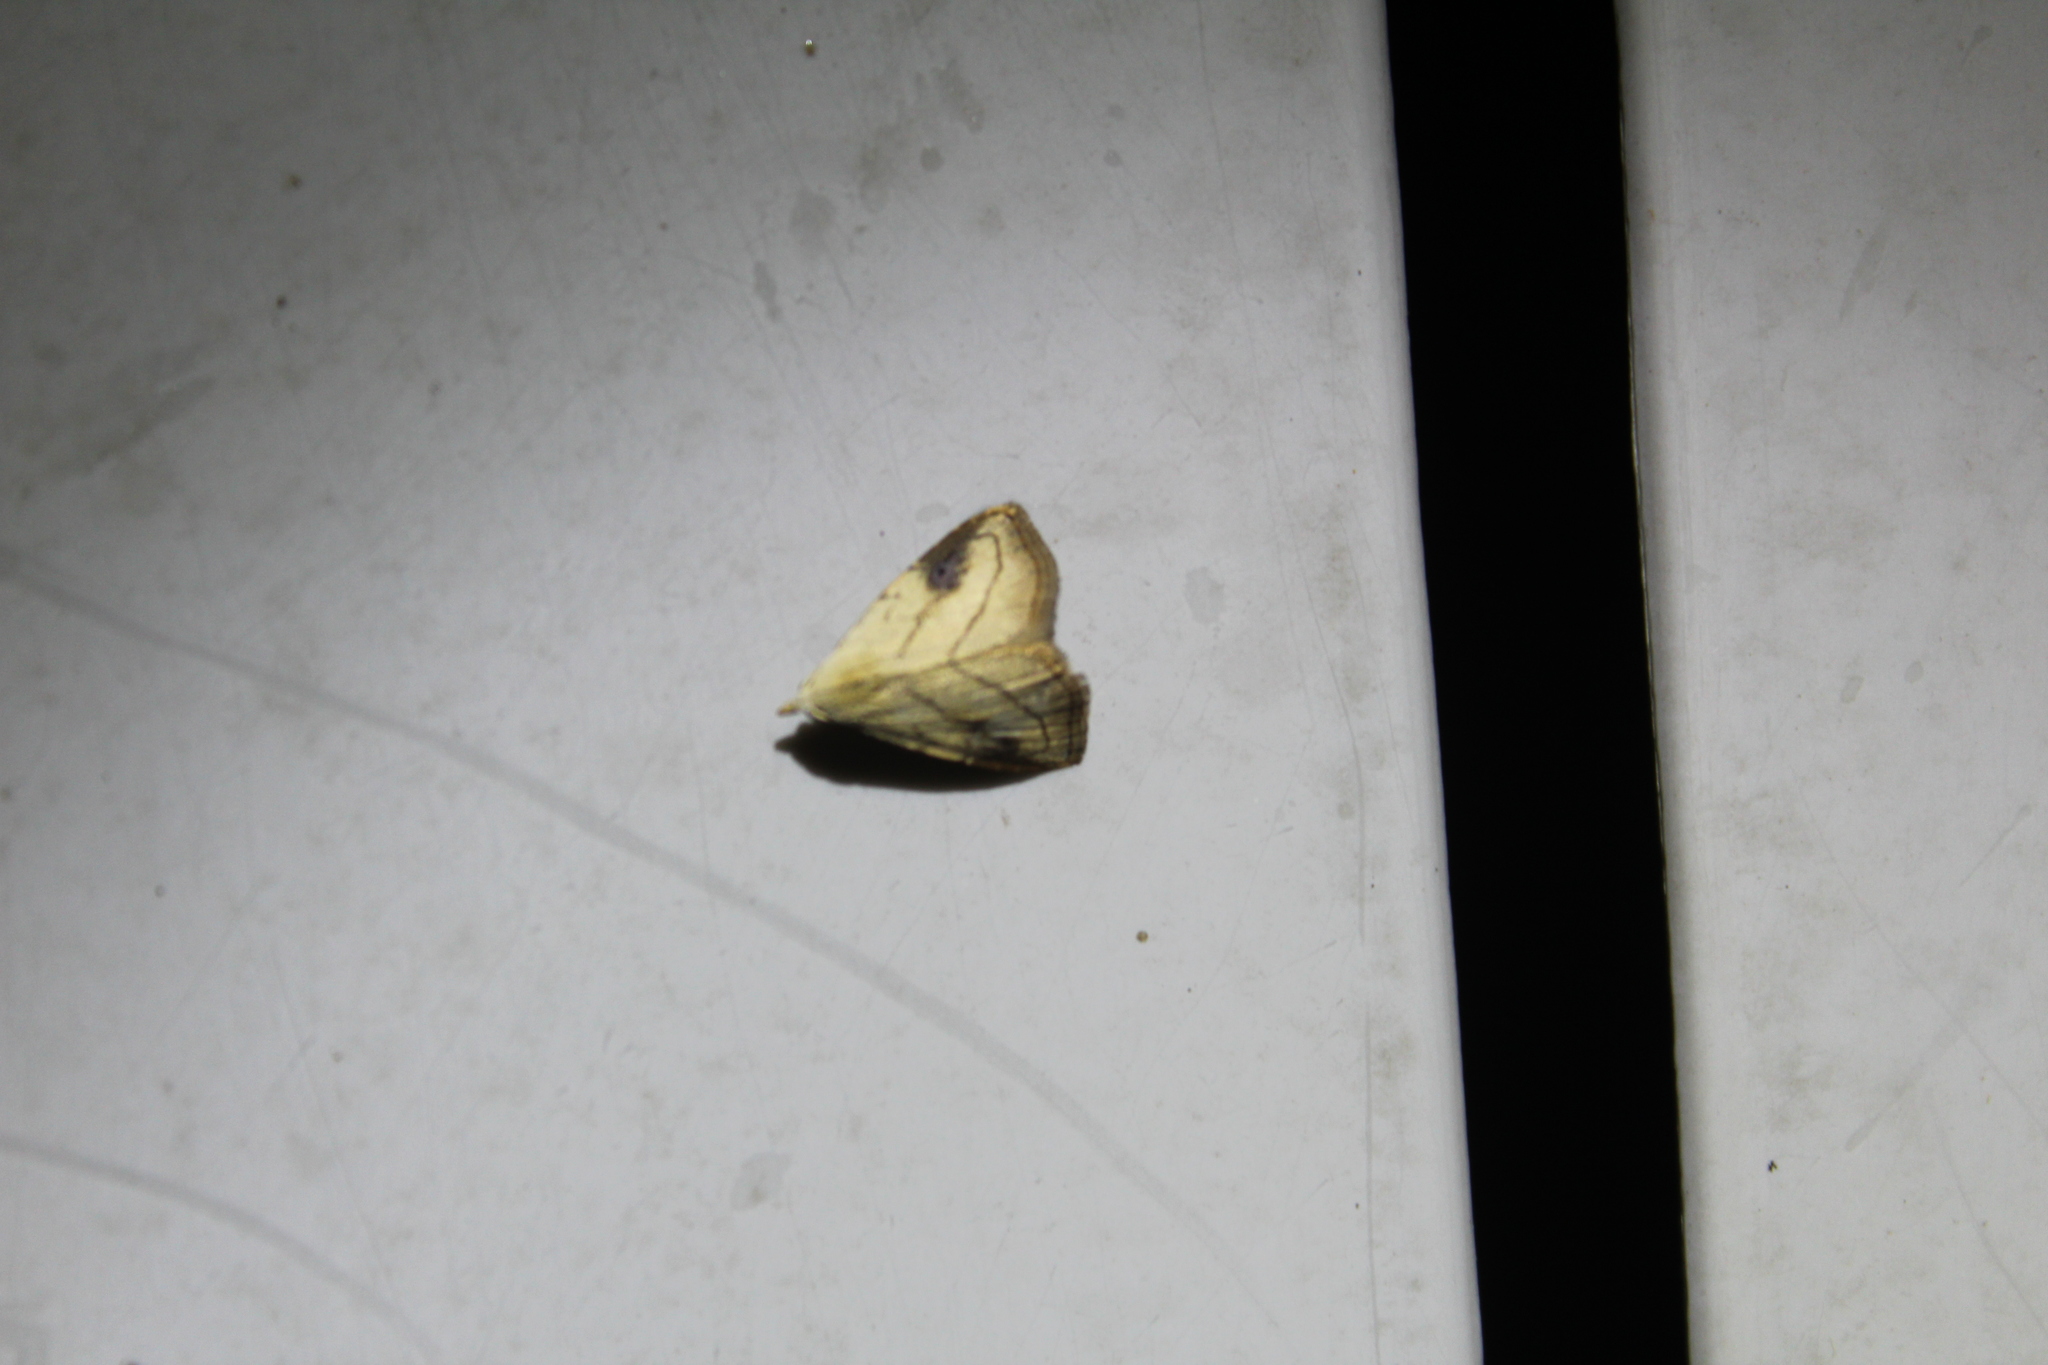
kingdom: Animalia
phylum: Arthropoda
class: Insecta
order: Lepidoptera
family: Erebidae
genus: Rivula
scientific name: Rivula propinqualis
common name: Spotted grass moth
